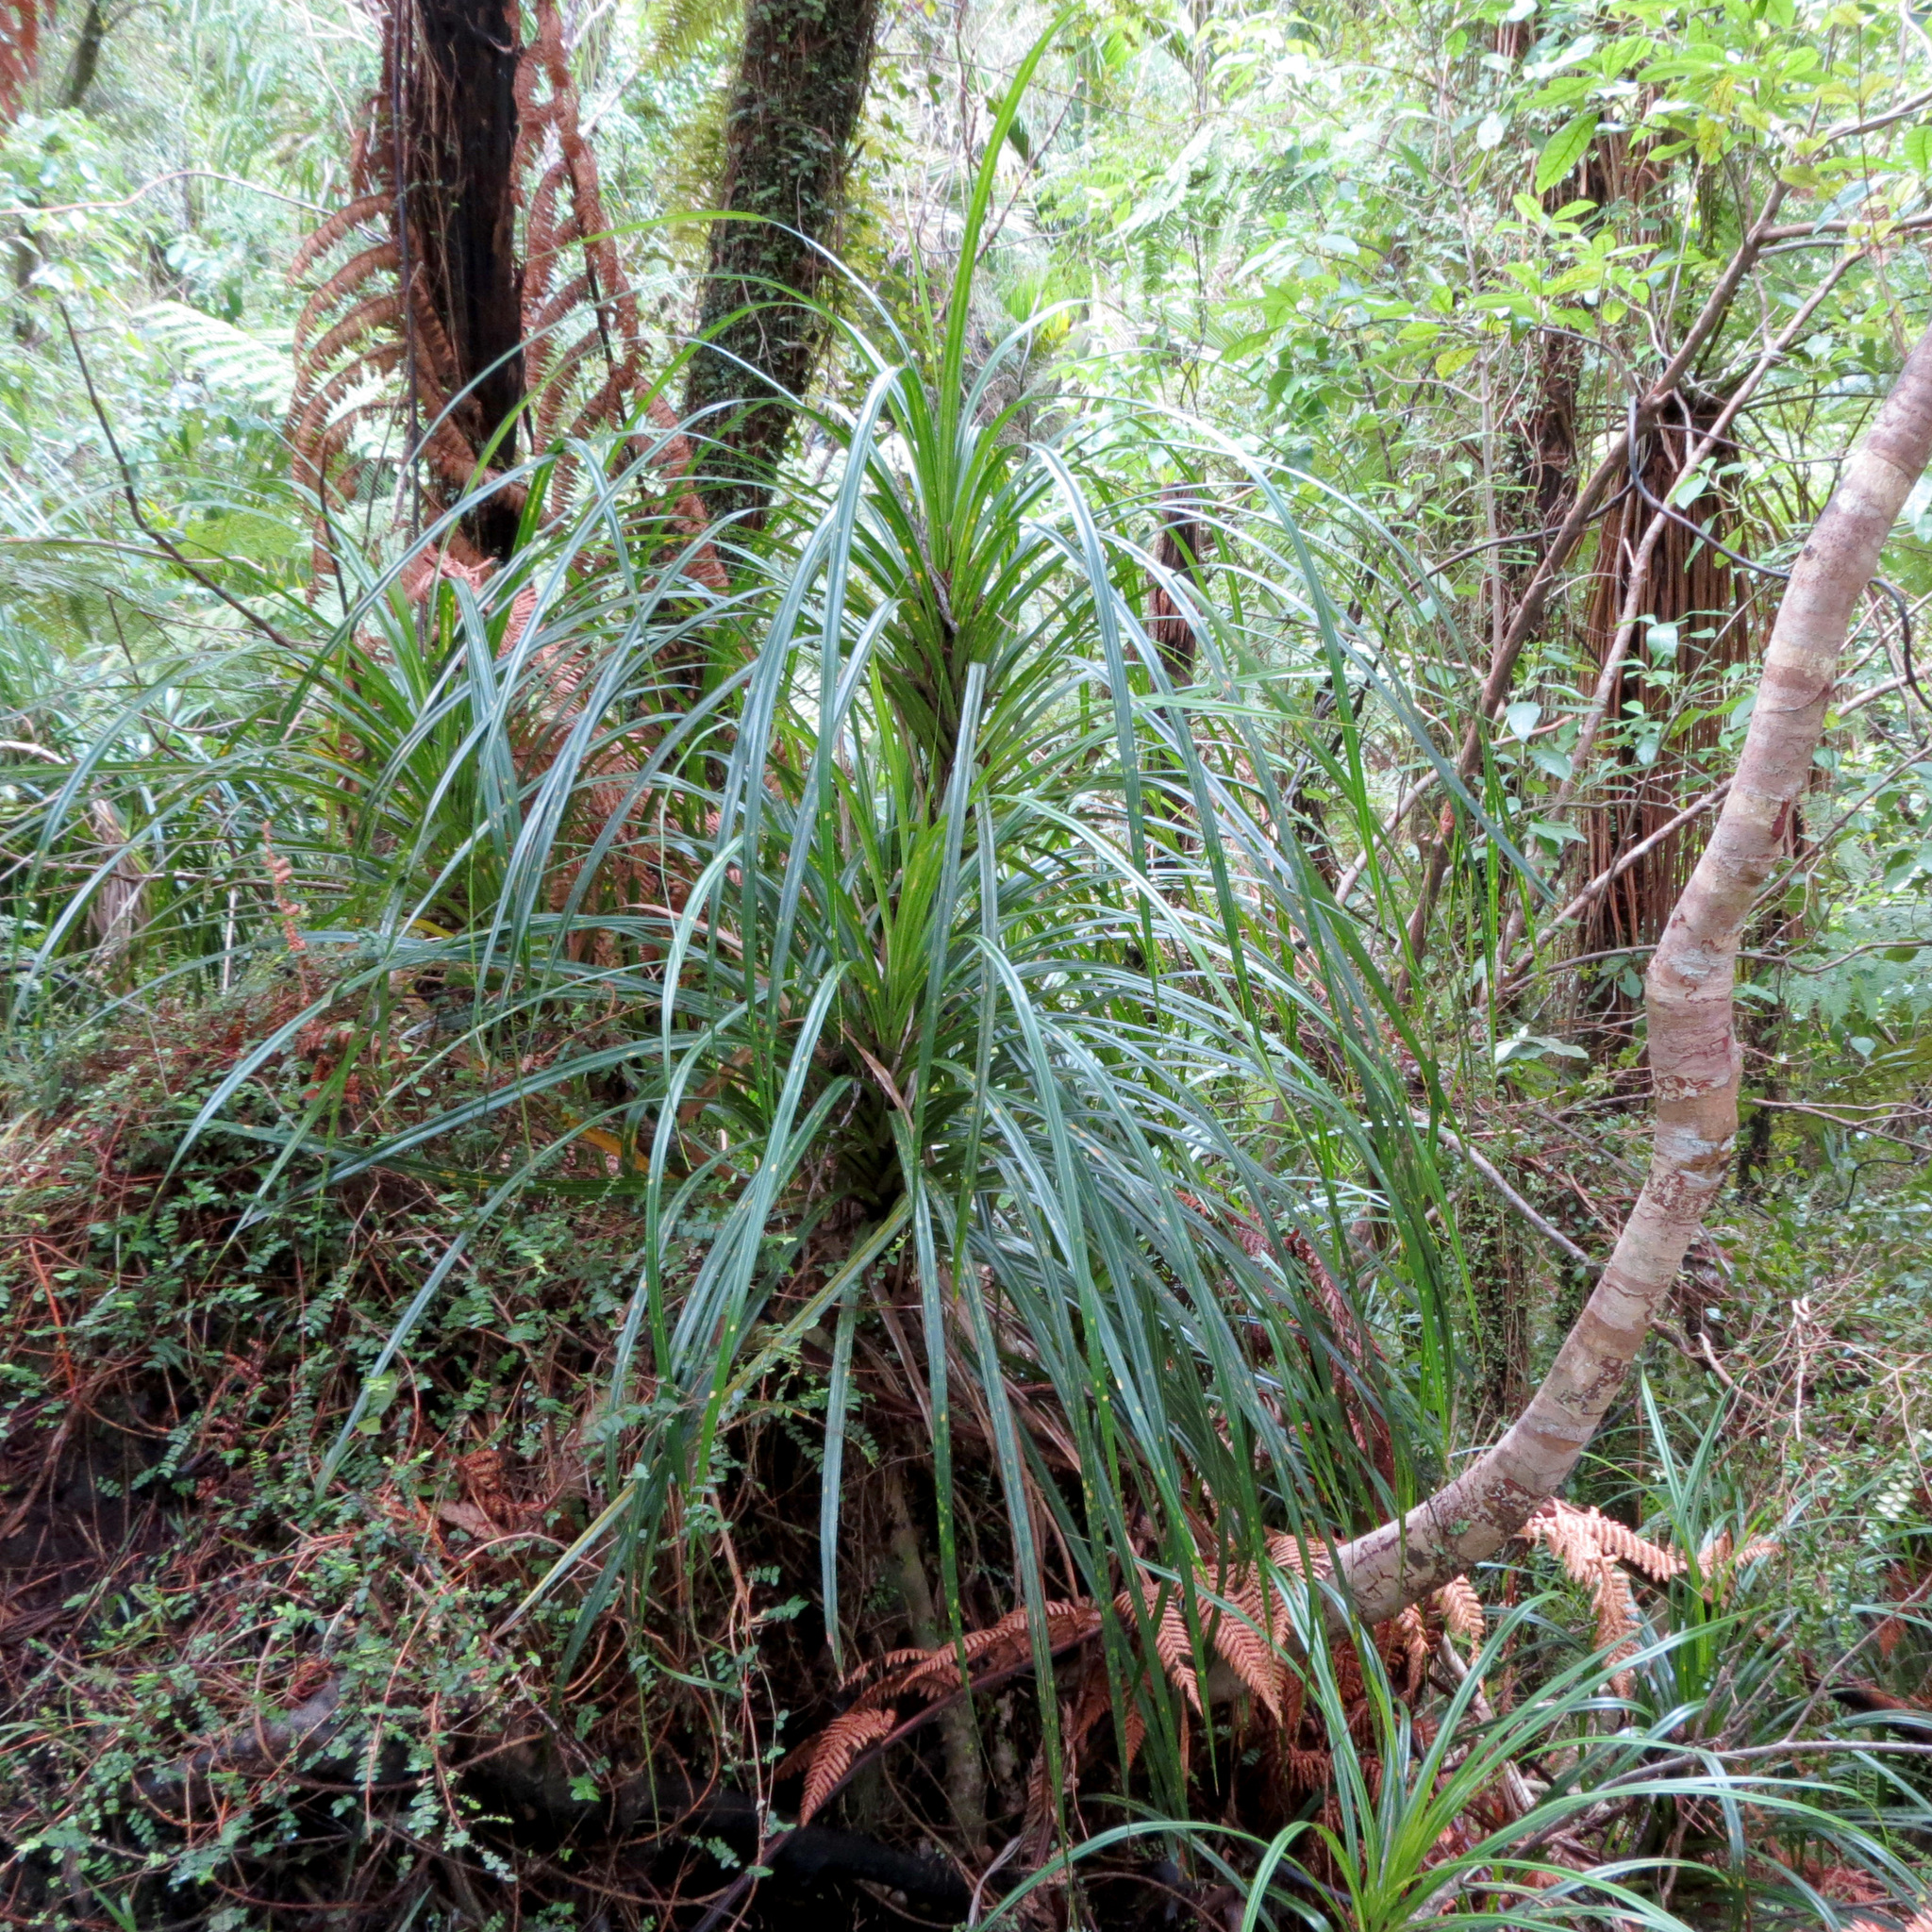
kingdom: Plantae
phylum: Tracheophyta
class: Liliopsida
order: Pandanales
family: Pandanaceae
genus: Freycinetia
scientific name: Freycinetia banksii
